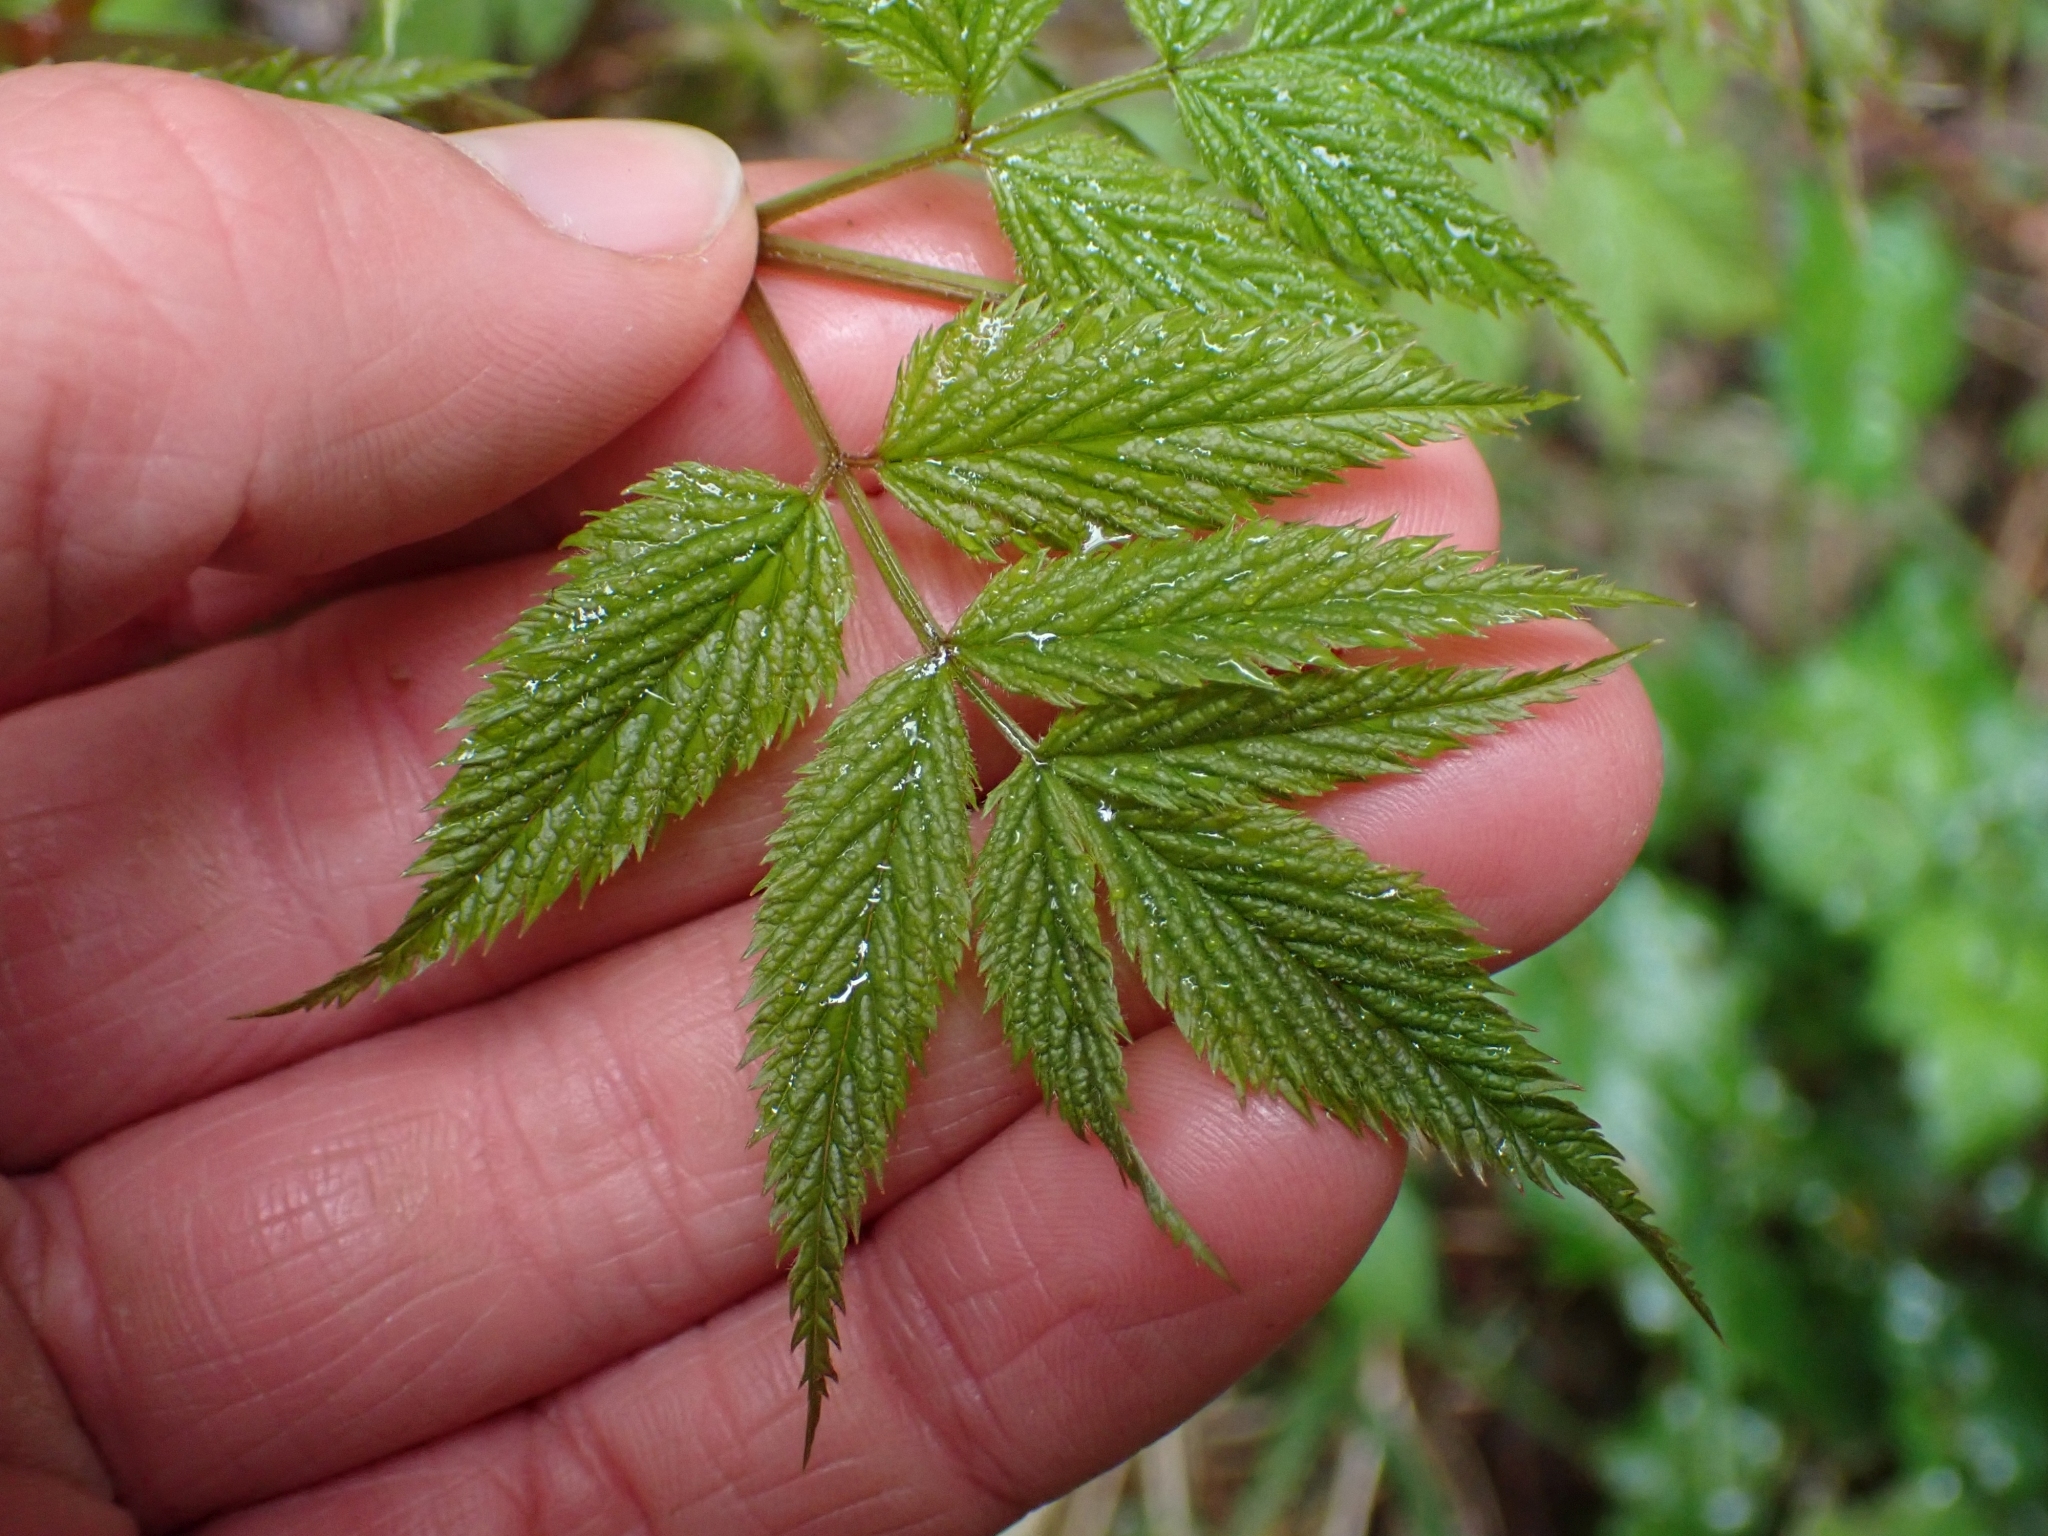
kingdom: Plantae
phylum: Tracheophyta
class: Magnoliopsida
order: Rosales
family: Rosaceae
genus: Aruncus
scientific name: Aruncus dioicus
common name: Buck's-beard
